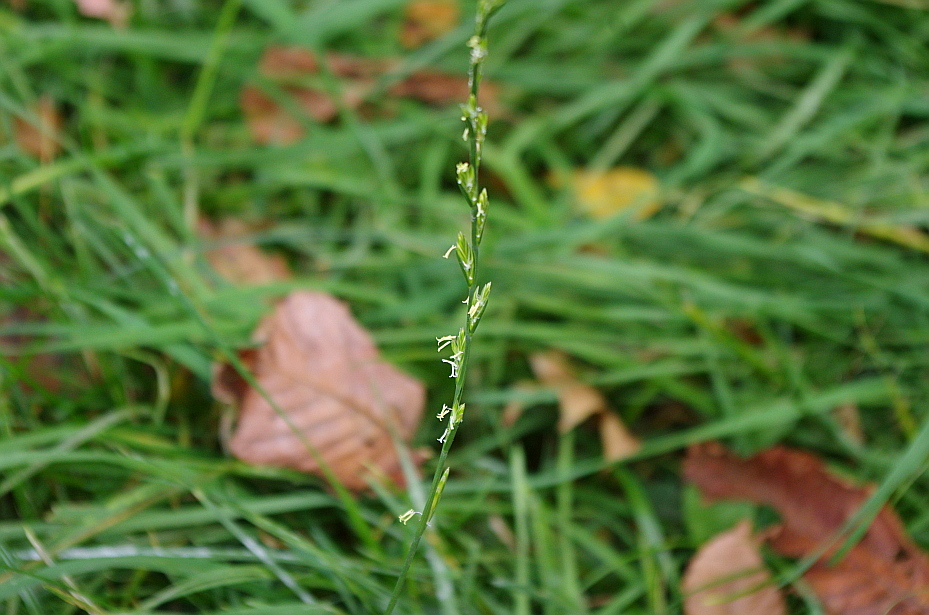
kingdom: Plantae
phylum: Tracheophyta
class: Liliopsida
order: Poales
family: Poaceae
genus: Lolium
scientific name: Lolium perenne
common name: Perennial ryegrass
